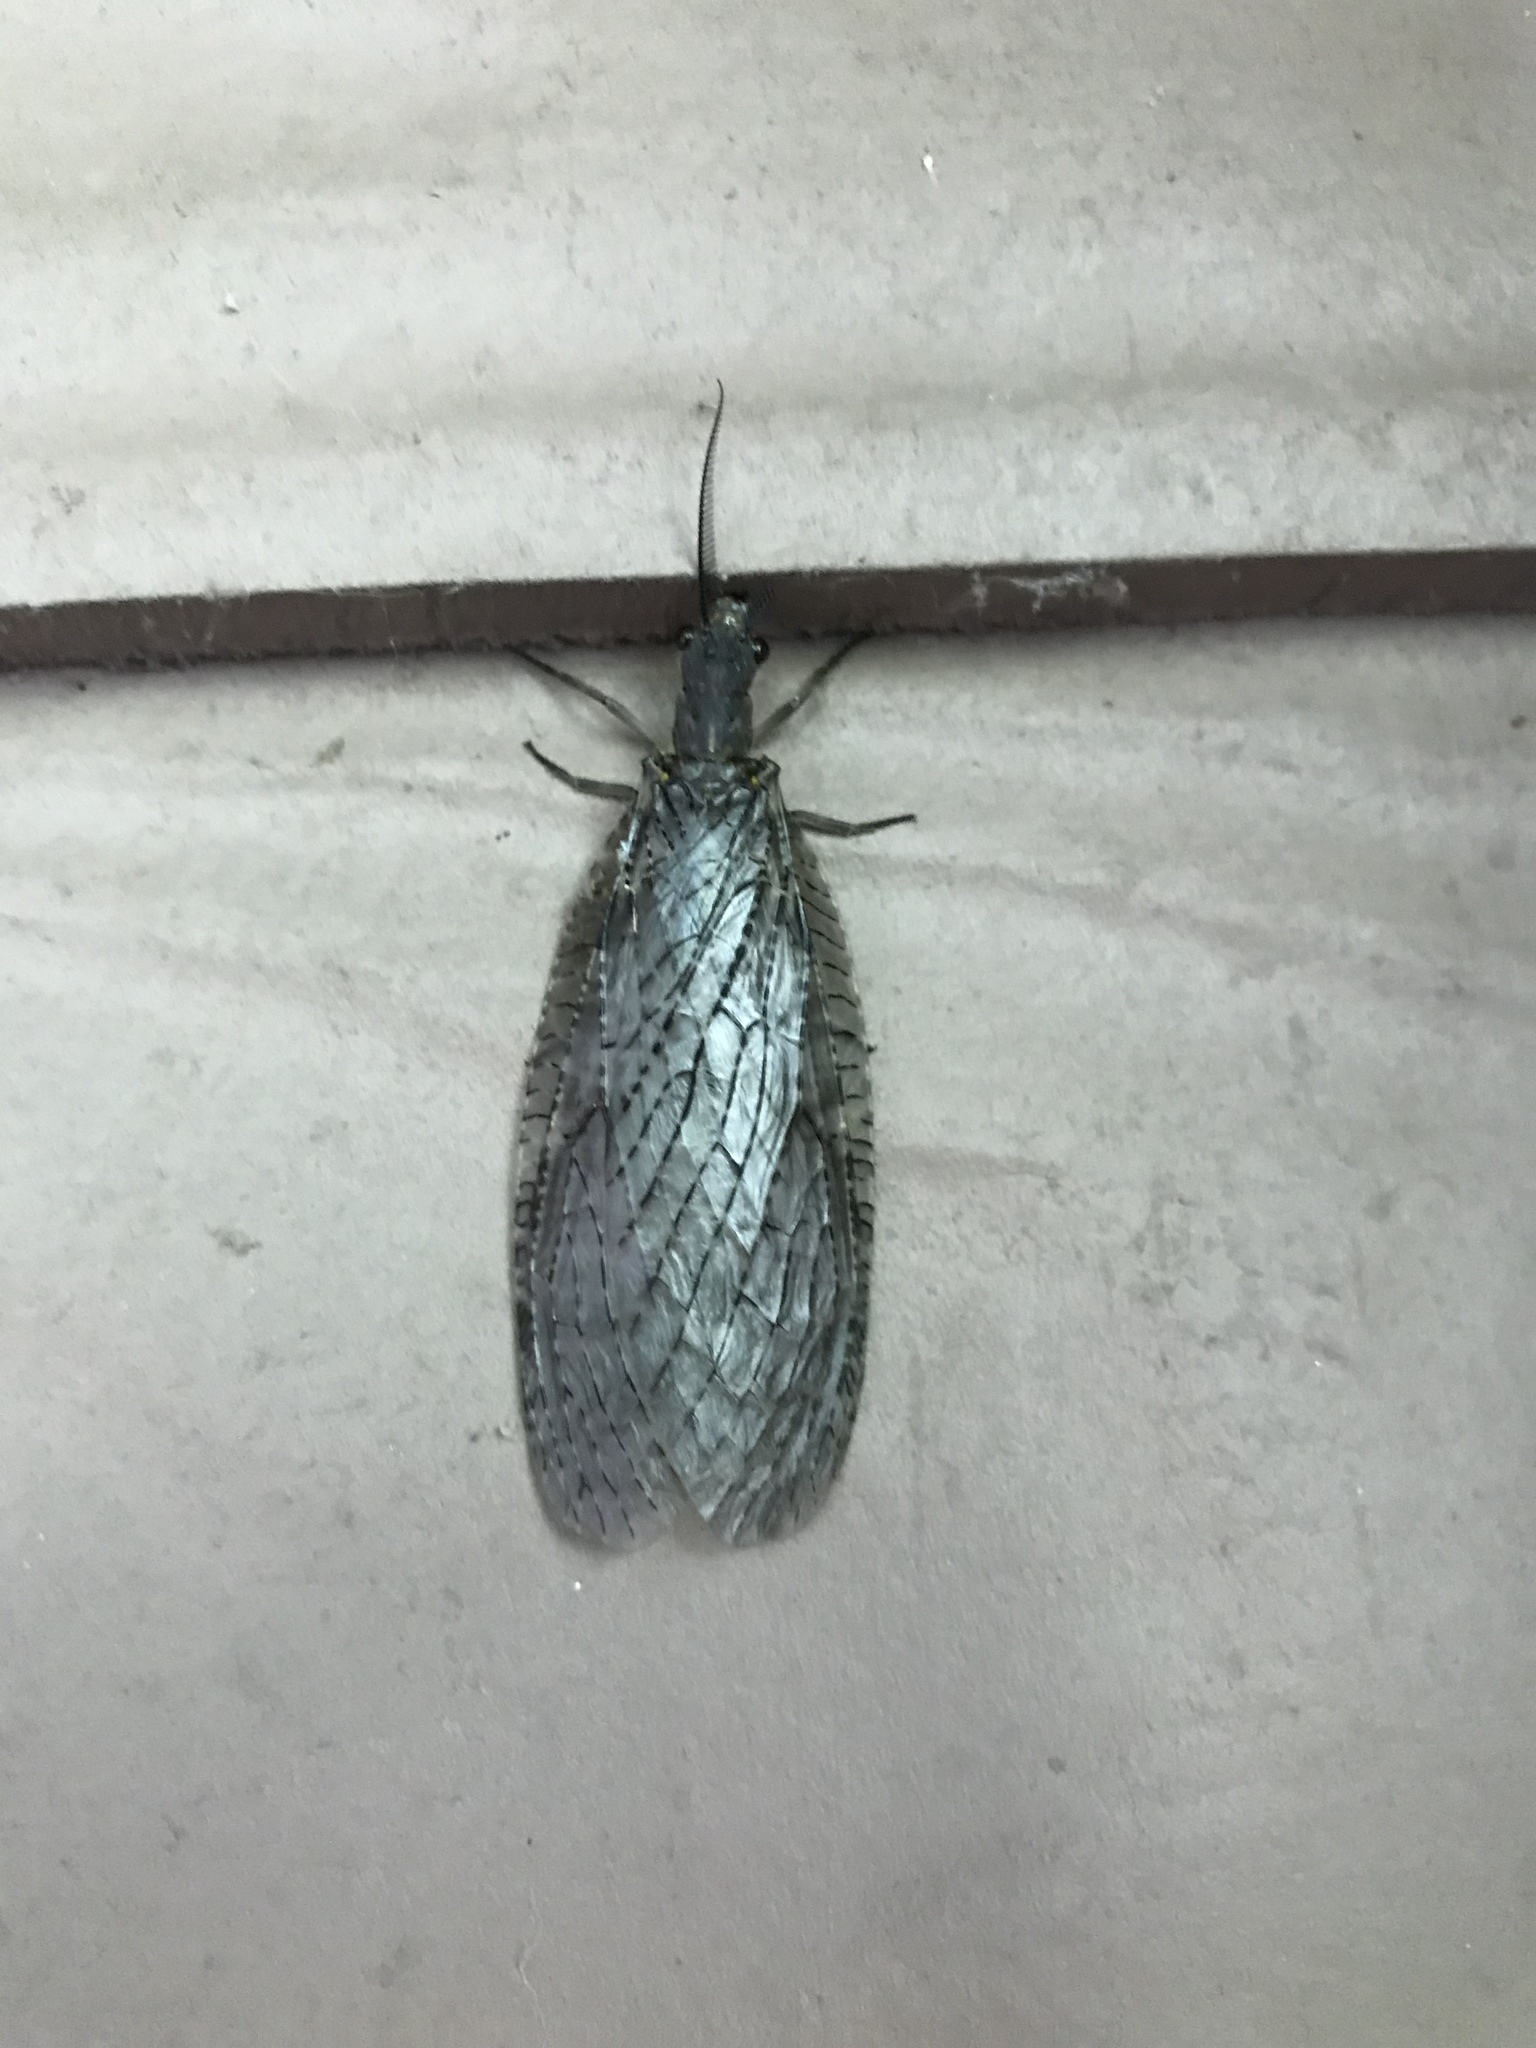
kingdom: Animalia
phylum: Arthropoda
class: Insecta
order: Megaloptera
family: Corydalidae
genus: Chauliodes
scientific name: Chauliodes pectinicornis
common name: Summer fishfly
